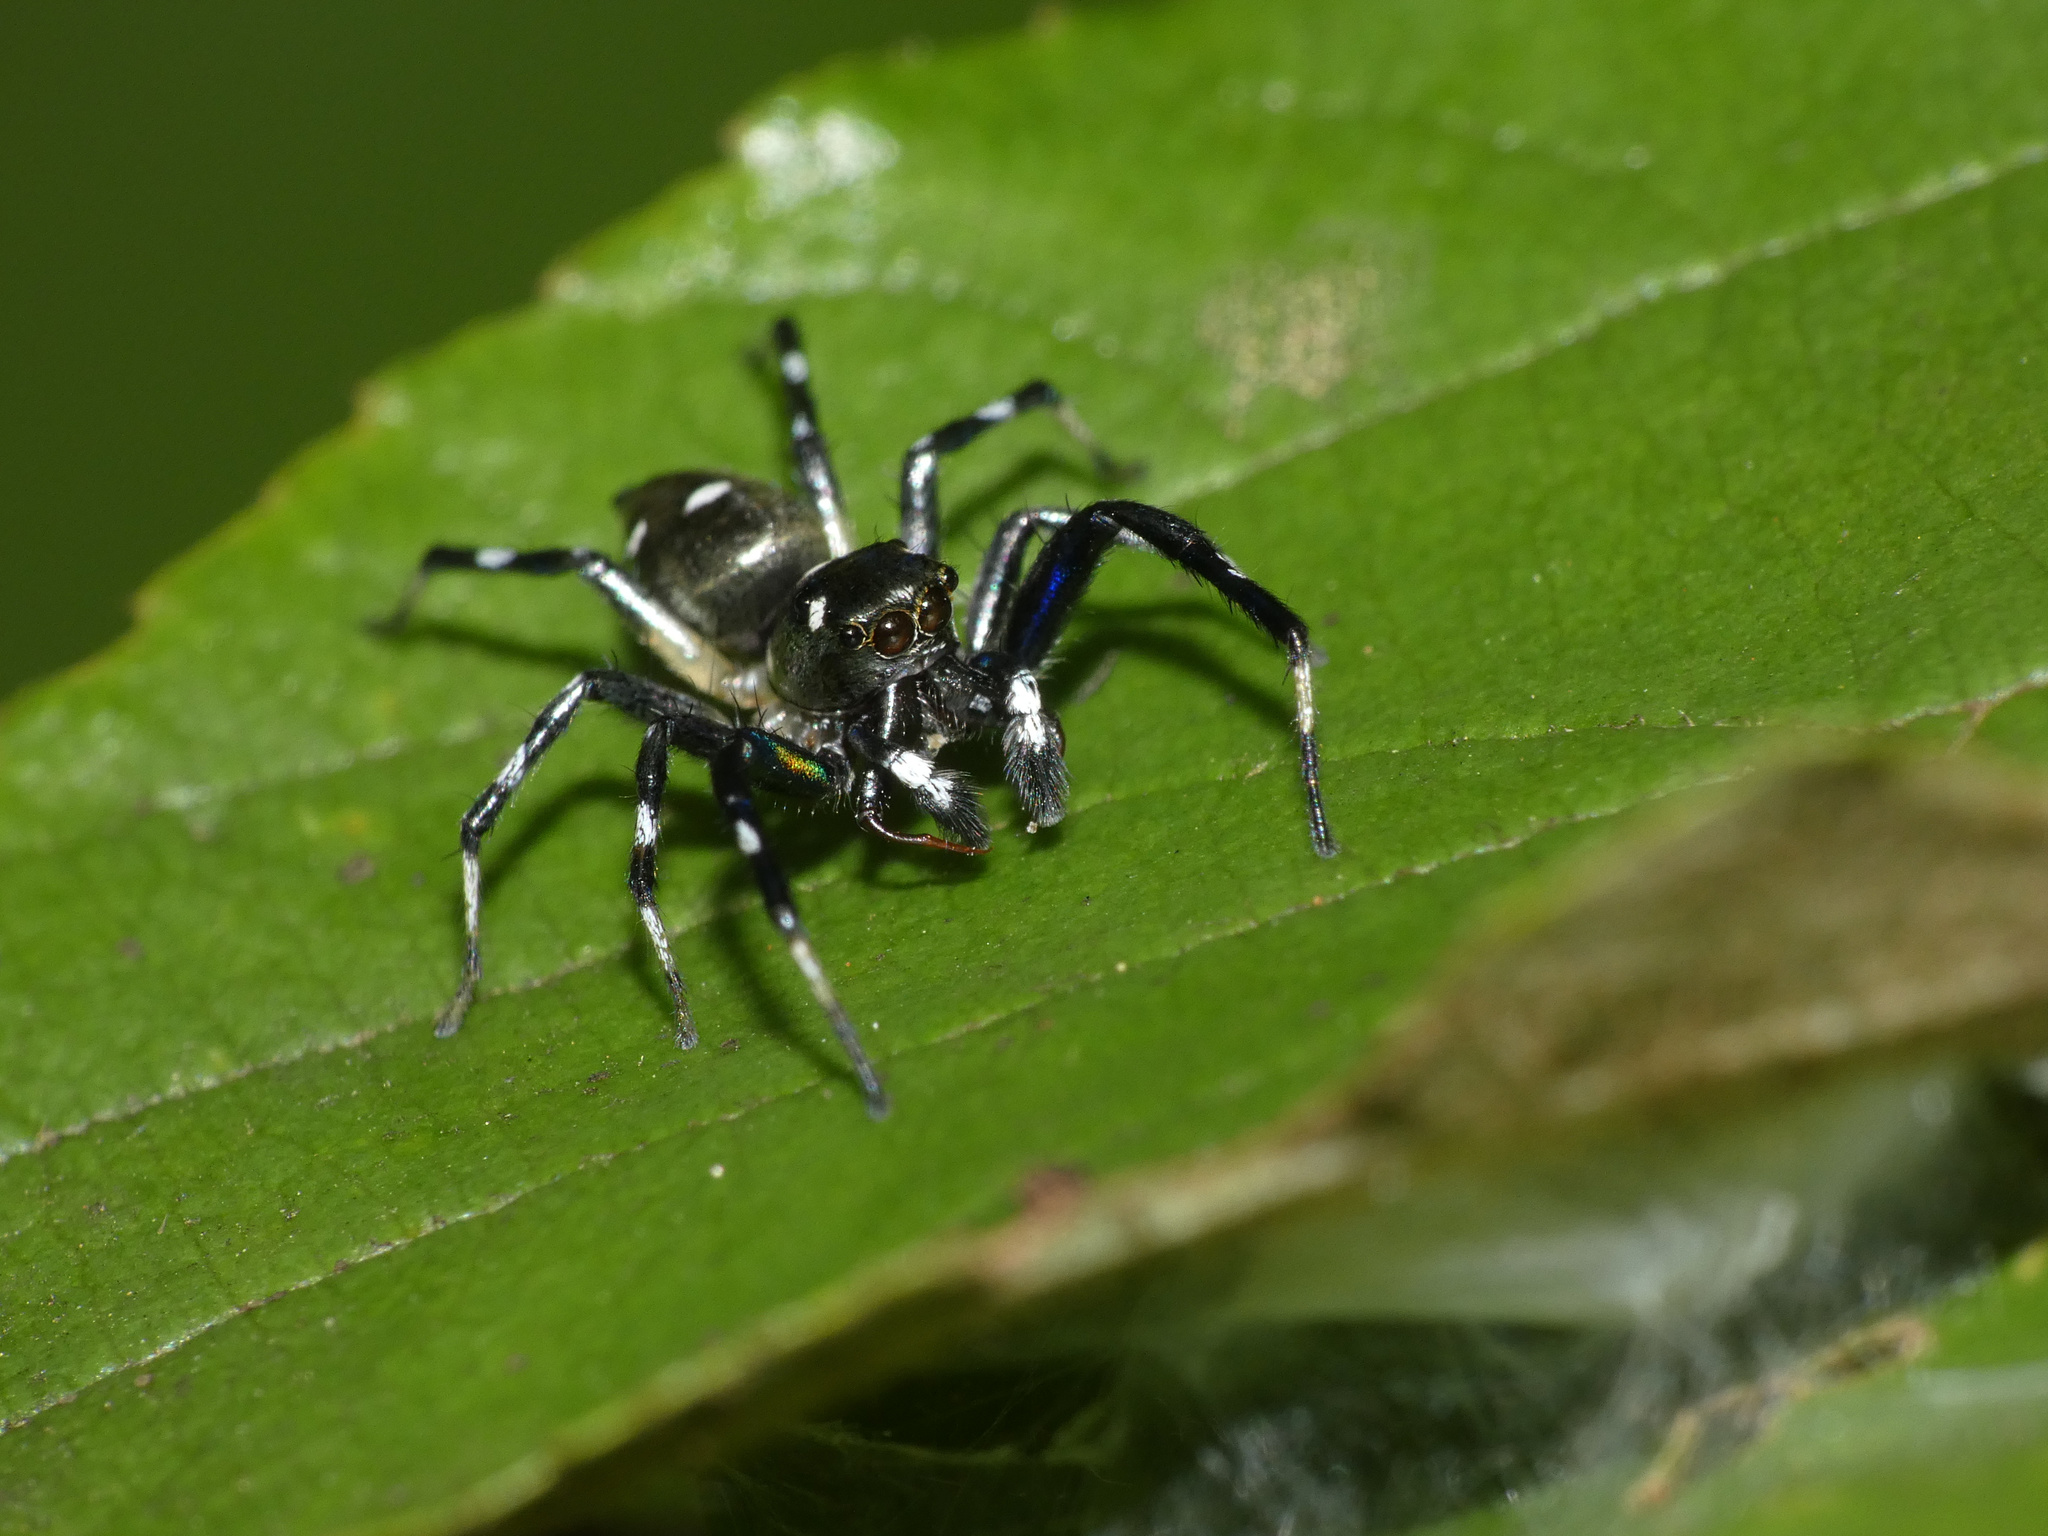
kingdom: Animalia
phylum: Arthropoda
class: Arachnida
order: Araneae
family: Salticidae
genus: Phintella
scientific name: Phintella aequipes
